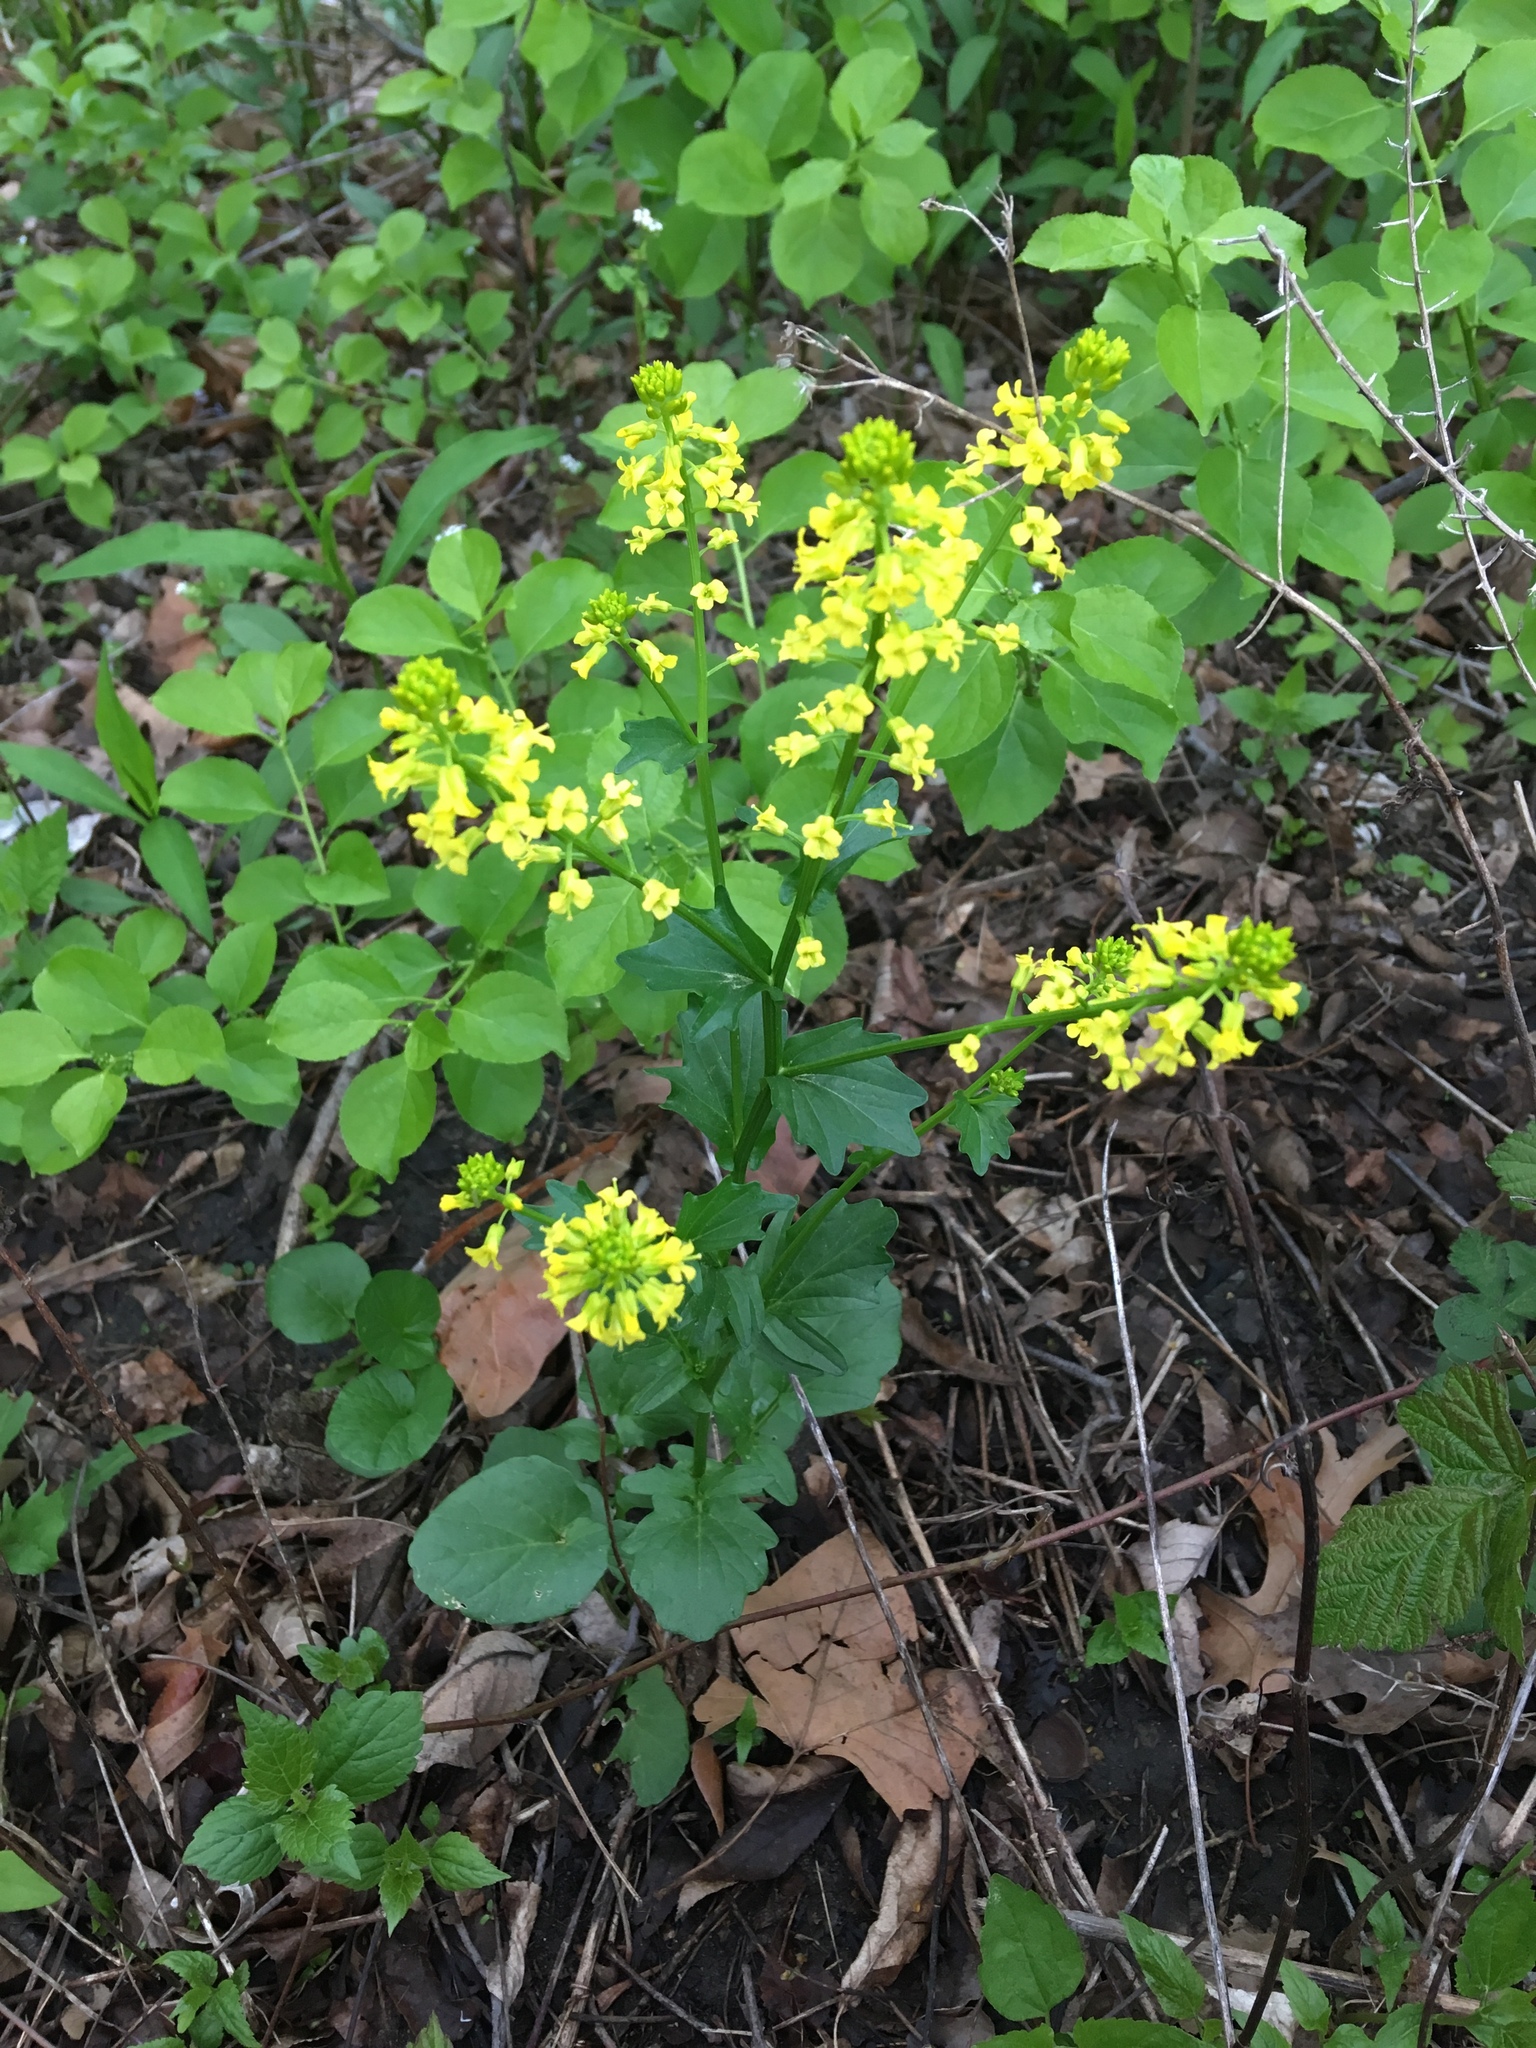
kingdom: Plantae
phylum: Tracheophyta
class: Magnoliopsida
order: Brassicales
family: Brassicaceae
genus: Barbarea
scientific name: Barbarea vulgaris
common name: Cressy-greens
